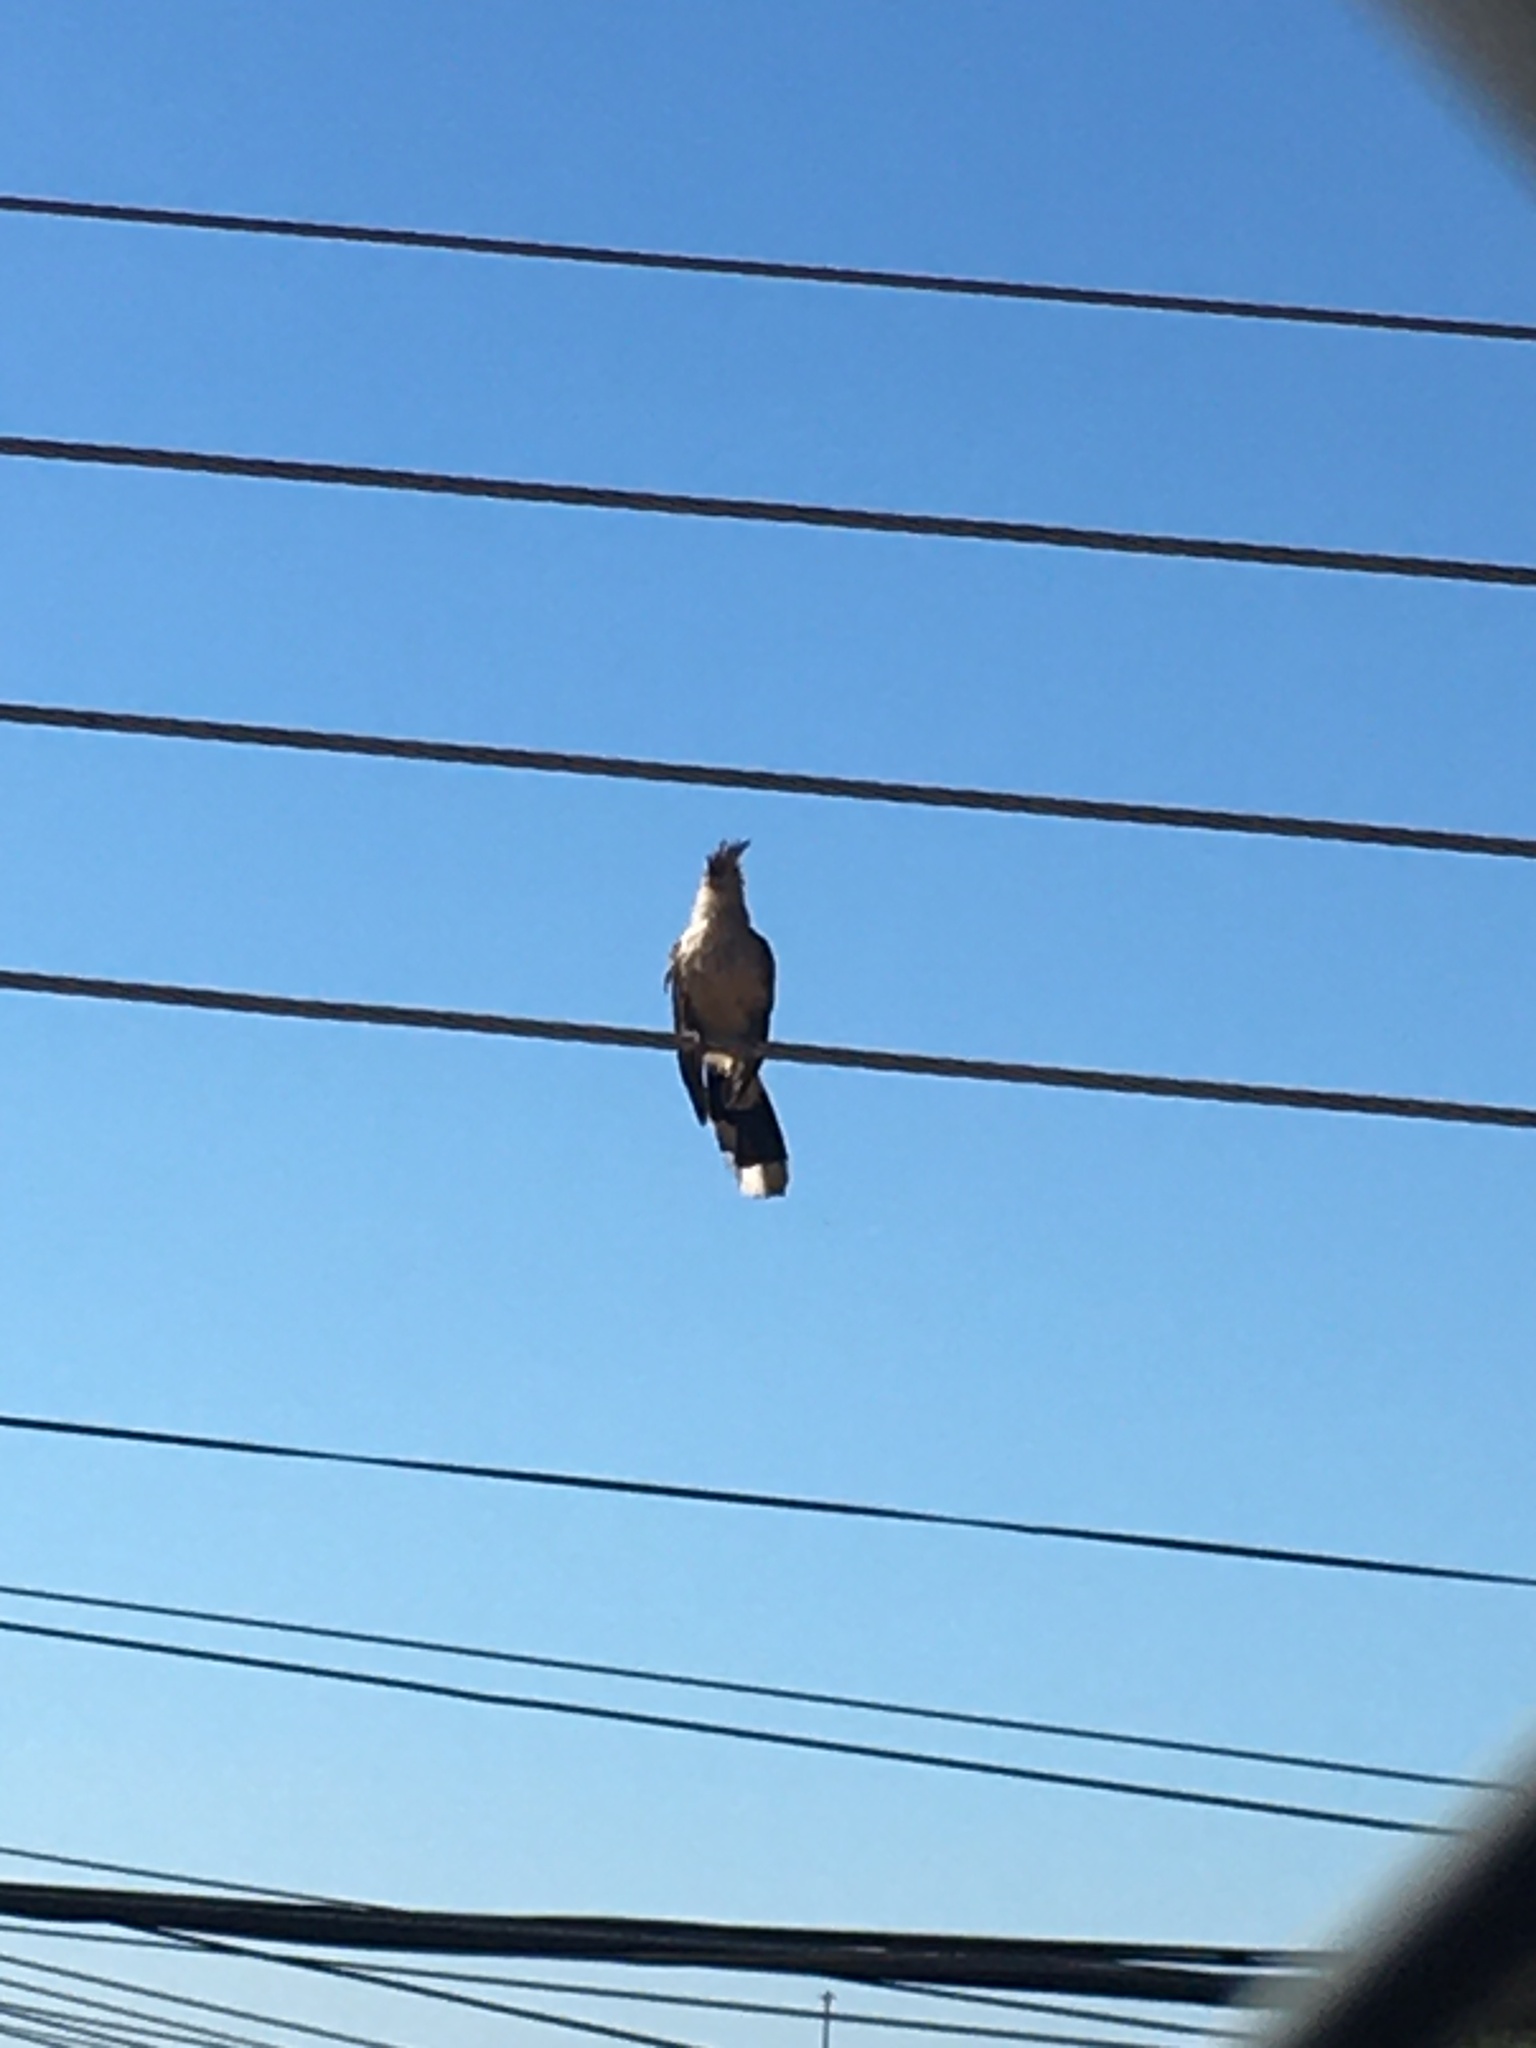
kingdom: Animalia
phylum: Chordata
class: Aves
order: Cuculiformes
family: Cuculidae
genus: Guira
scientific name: Guira guira
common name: Guira cuckoo
